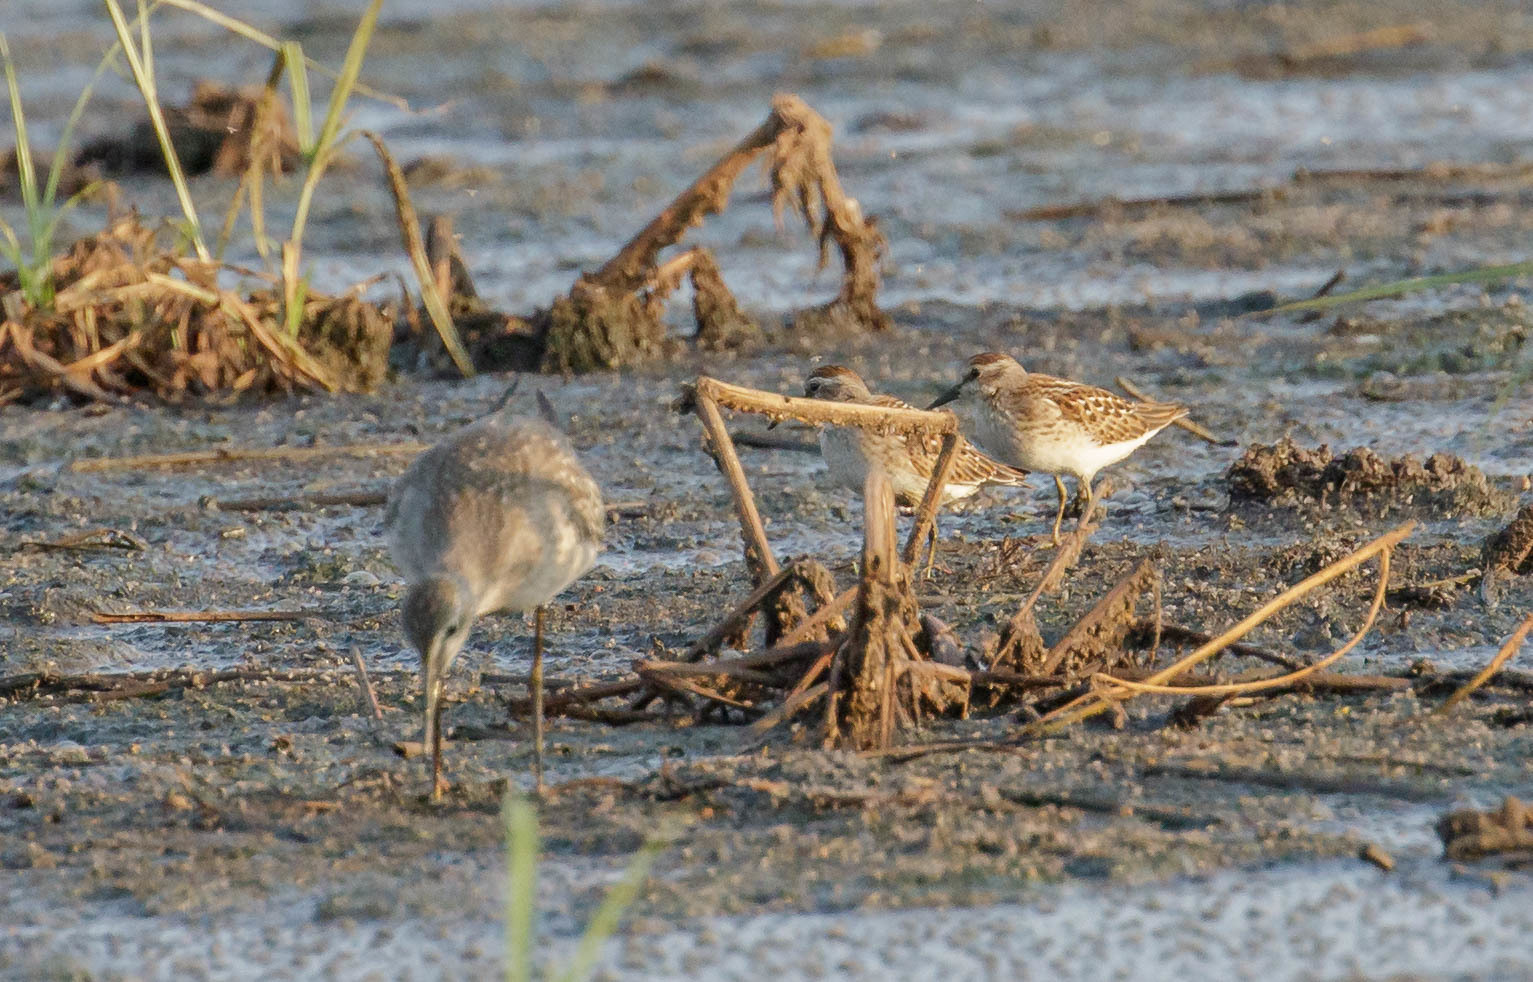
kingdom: Animalia
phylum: Chordata
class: Aves
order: Charadriiformes
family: Scolopacidae
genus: Calidris
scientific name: Calidris minutilla
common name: Least sandpiper
